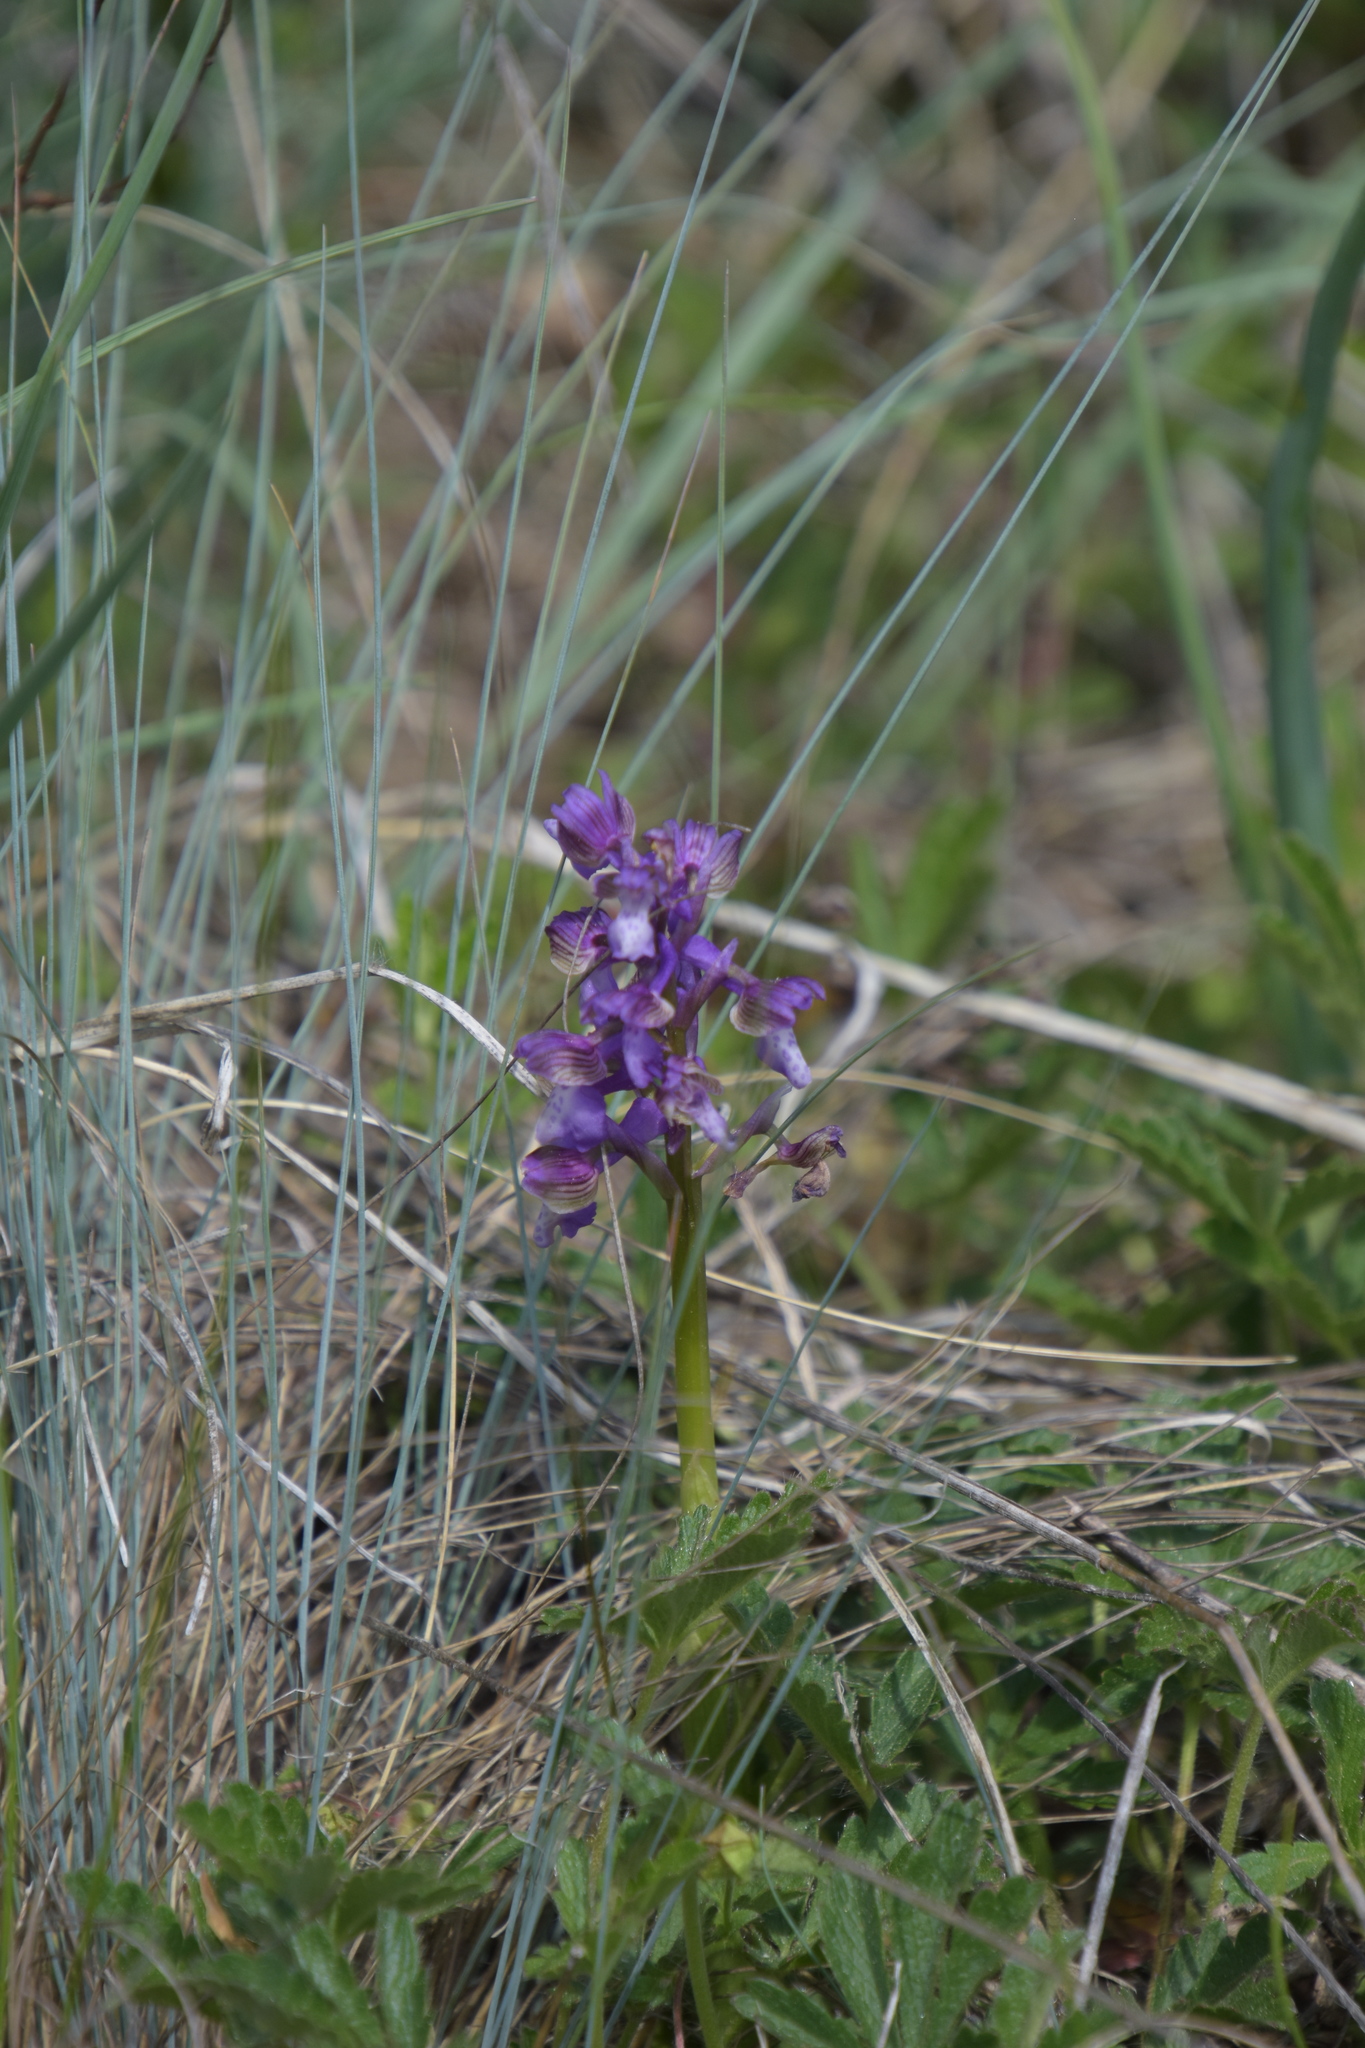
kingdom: Plantae
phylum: Tracheophyta
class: Liliopsida
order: Asparagales
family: Orchidaceae
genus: Anacamptis
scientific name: Anacamptis morio
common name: Green-winged orchid
